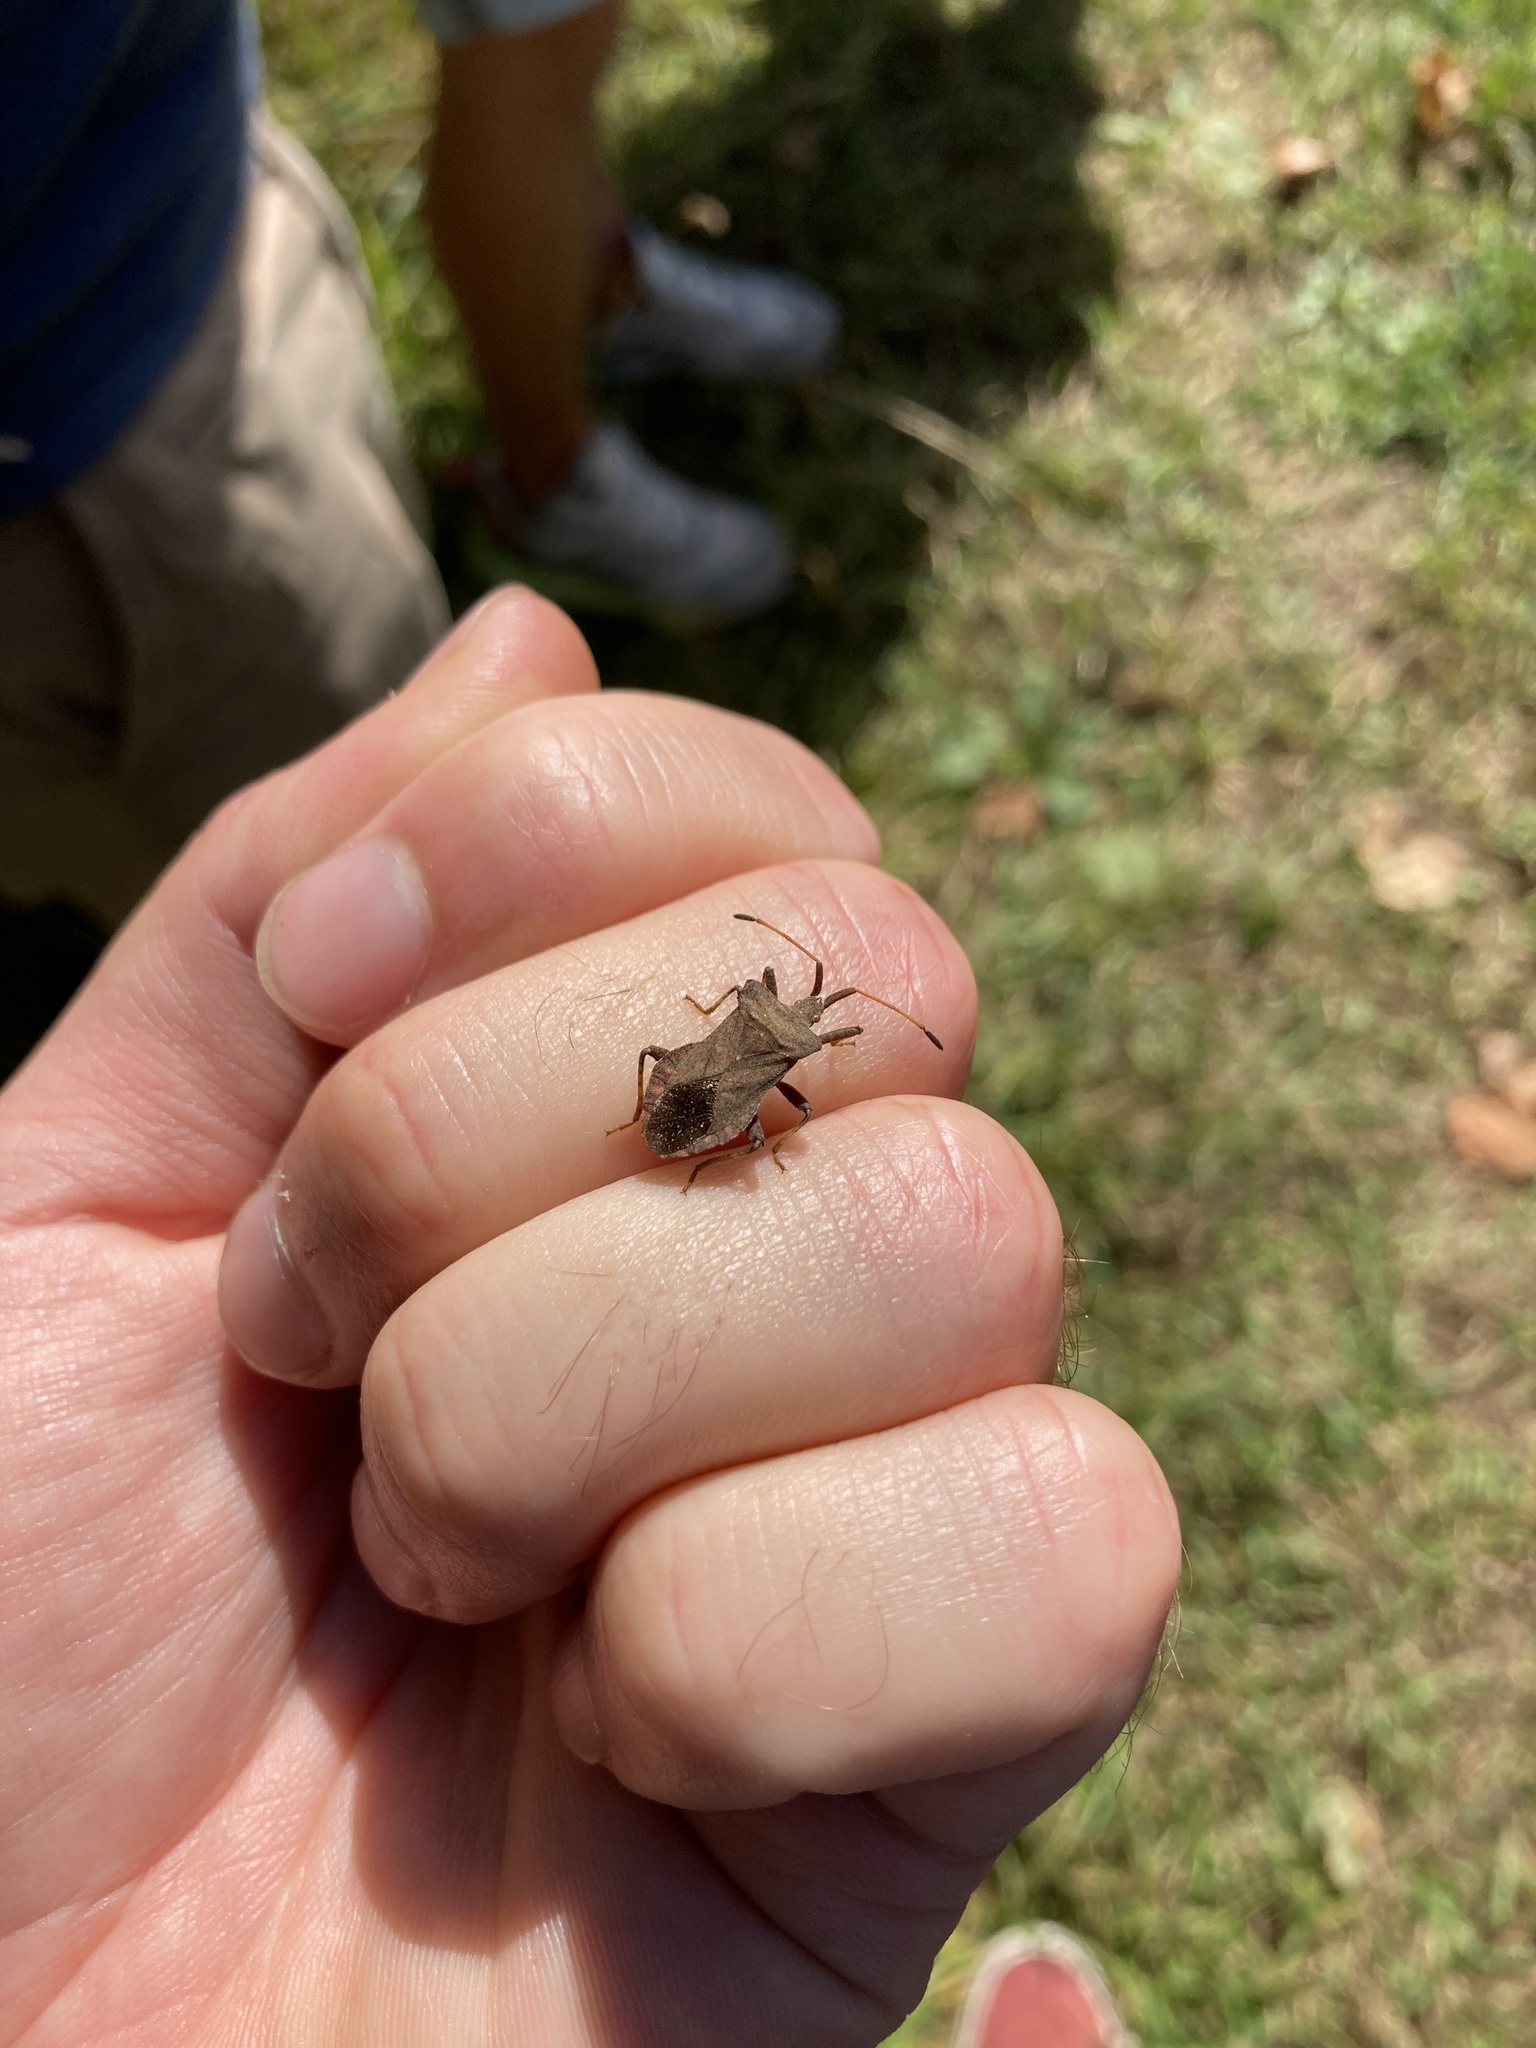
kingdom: Animalia
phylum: Arthropoda
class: Insecta
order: Hemiptera
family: Coreidae
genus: Coreus
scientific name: Coreus marginatus
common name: Dock bug
